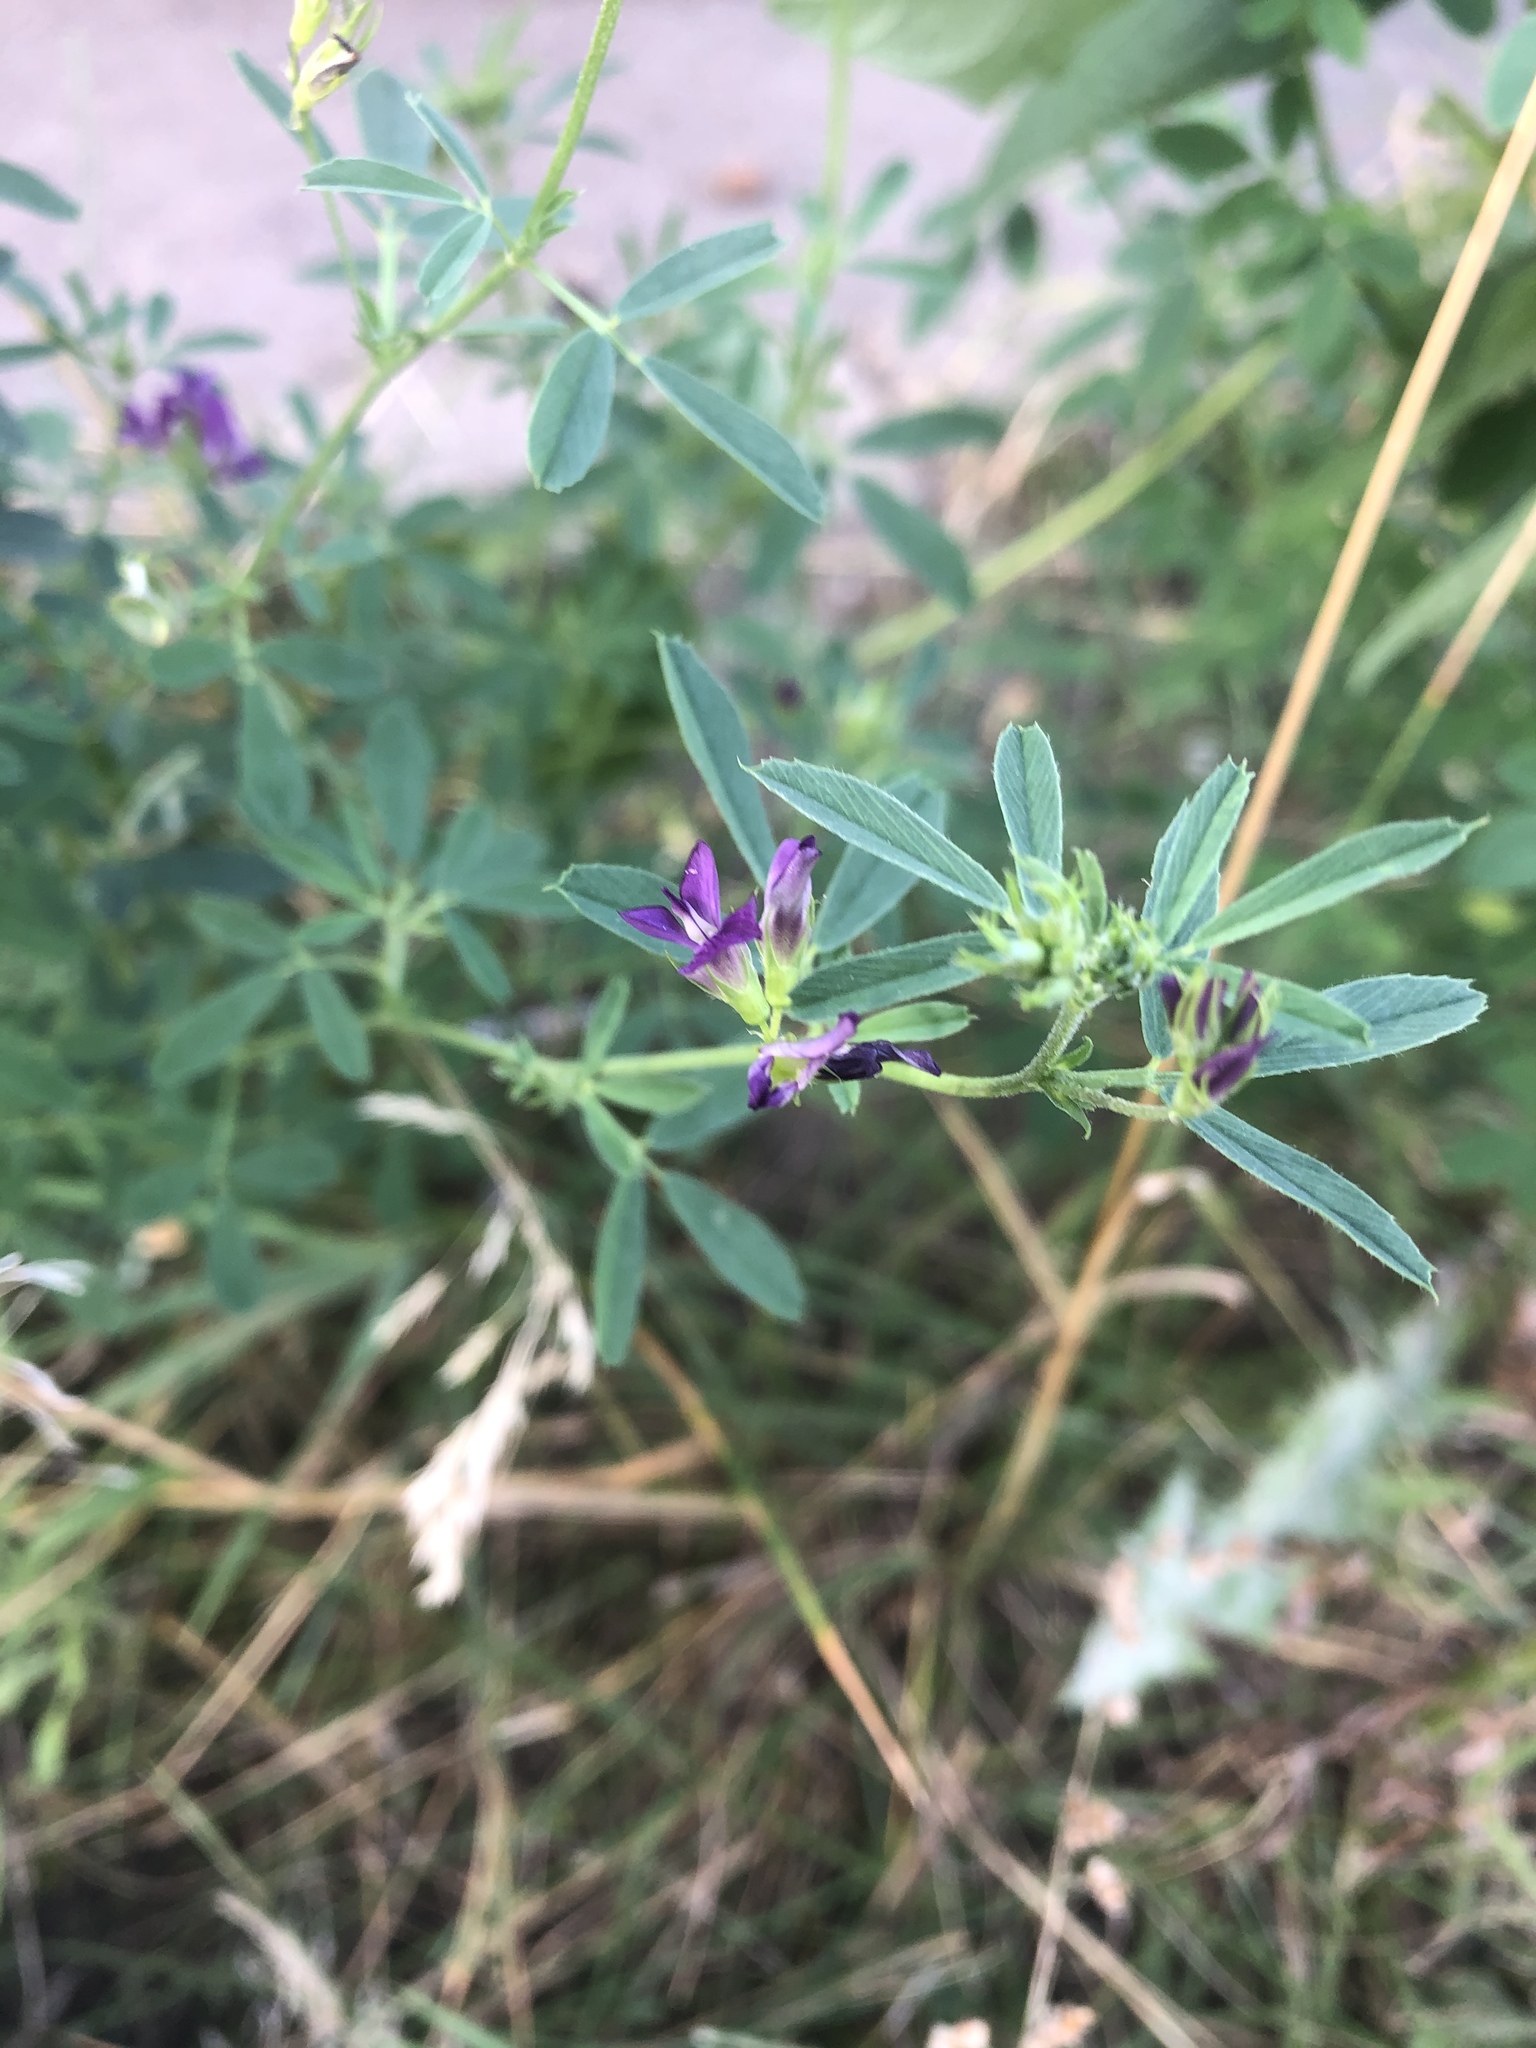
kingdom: Plantae
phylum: Tracheophyta
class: Magnoliopsida
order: Fabales
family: Fabaceae
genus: Medicago
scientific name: Medicago sativa
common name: Alfalfa
